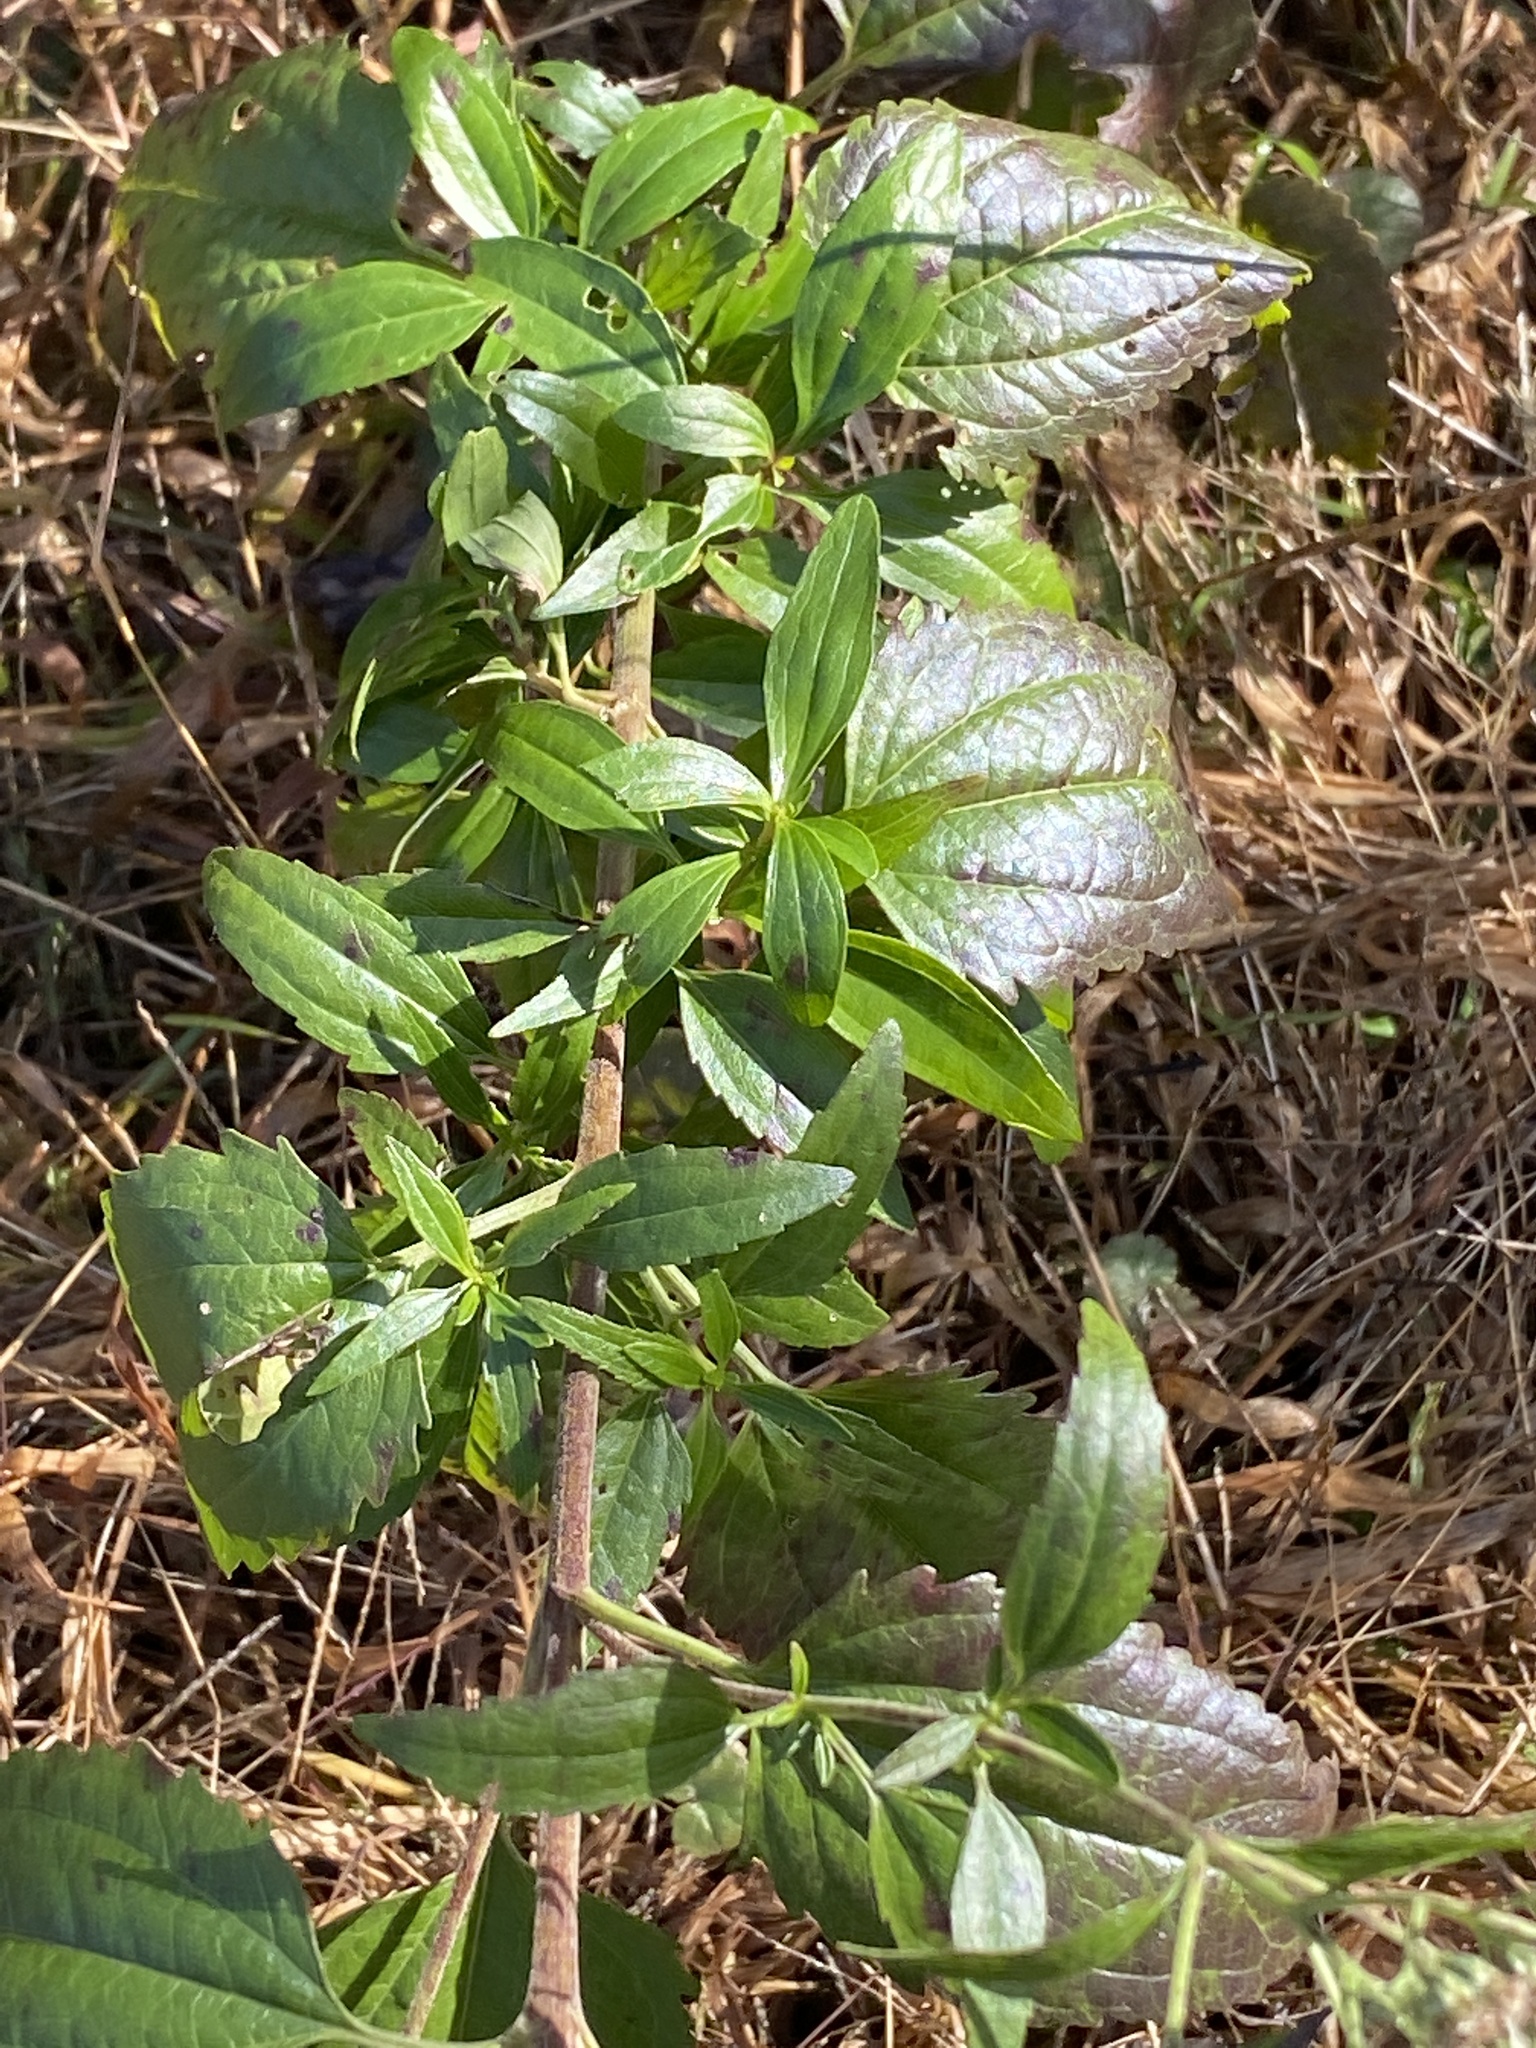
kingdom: Plantae
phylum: Tracheophyta
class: Magnoliopsida
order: Asterales
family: Asteraceae
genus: Eupatorium
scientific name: Eupatorium serotinum
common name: Late boneset
